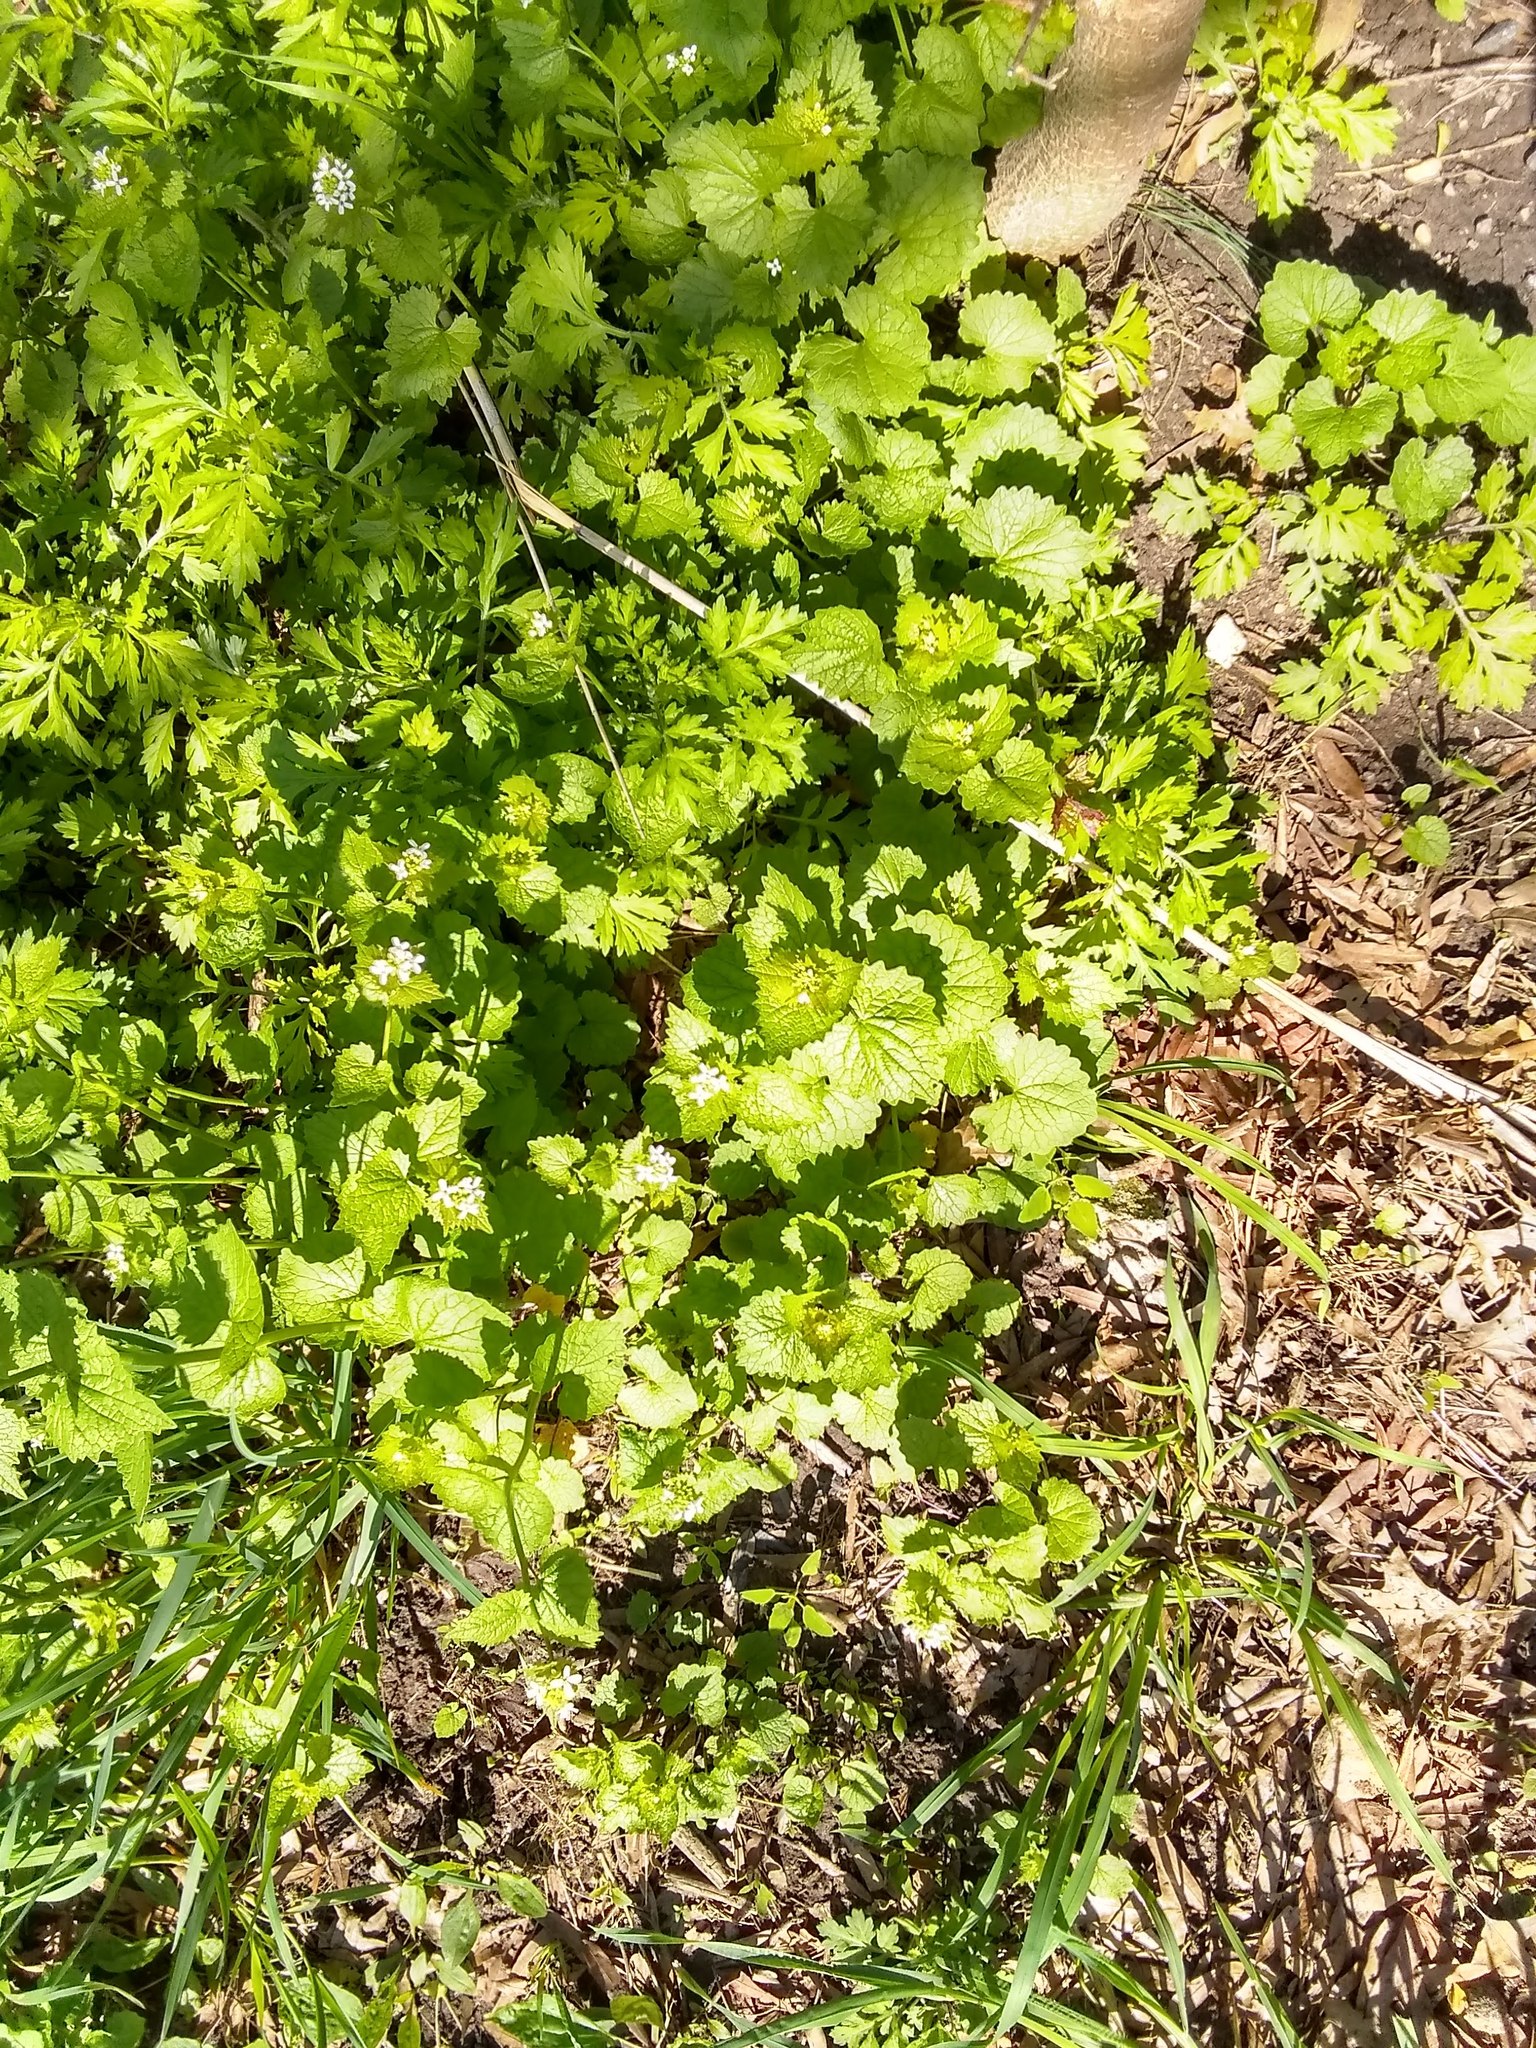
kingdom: Plantae
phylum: Tracheophyta
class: Magnoliopsida
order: Brassicales
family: Brassicaceae
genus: Alliaria
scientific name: Alliaria petiolata
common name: Garlic mustard
